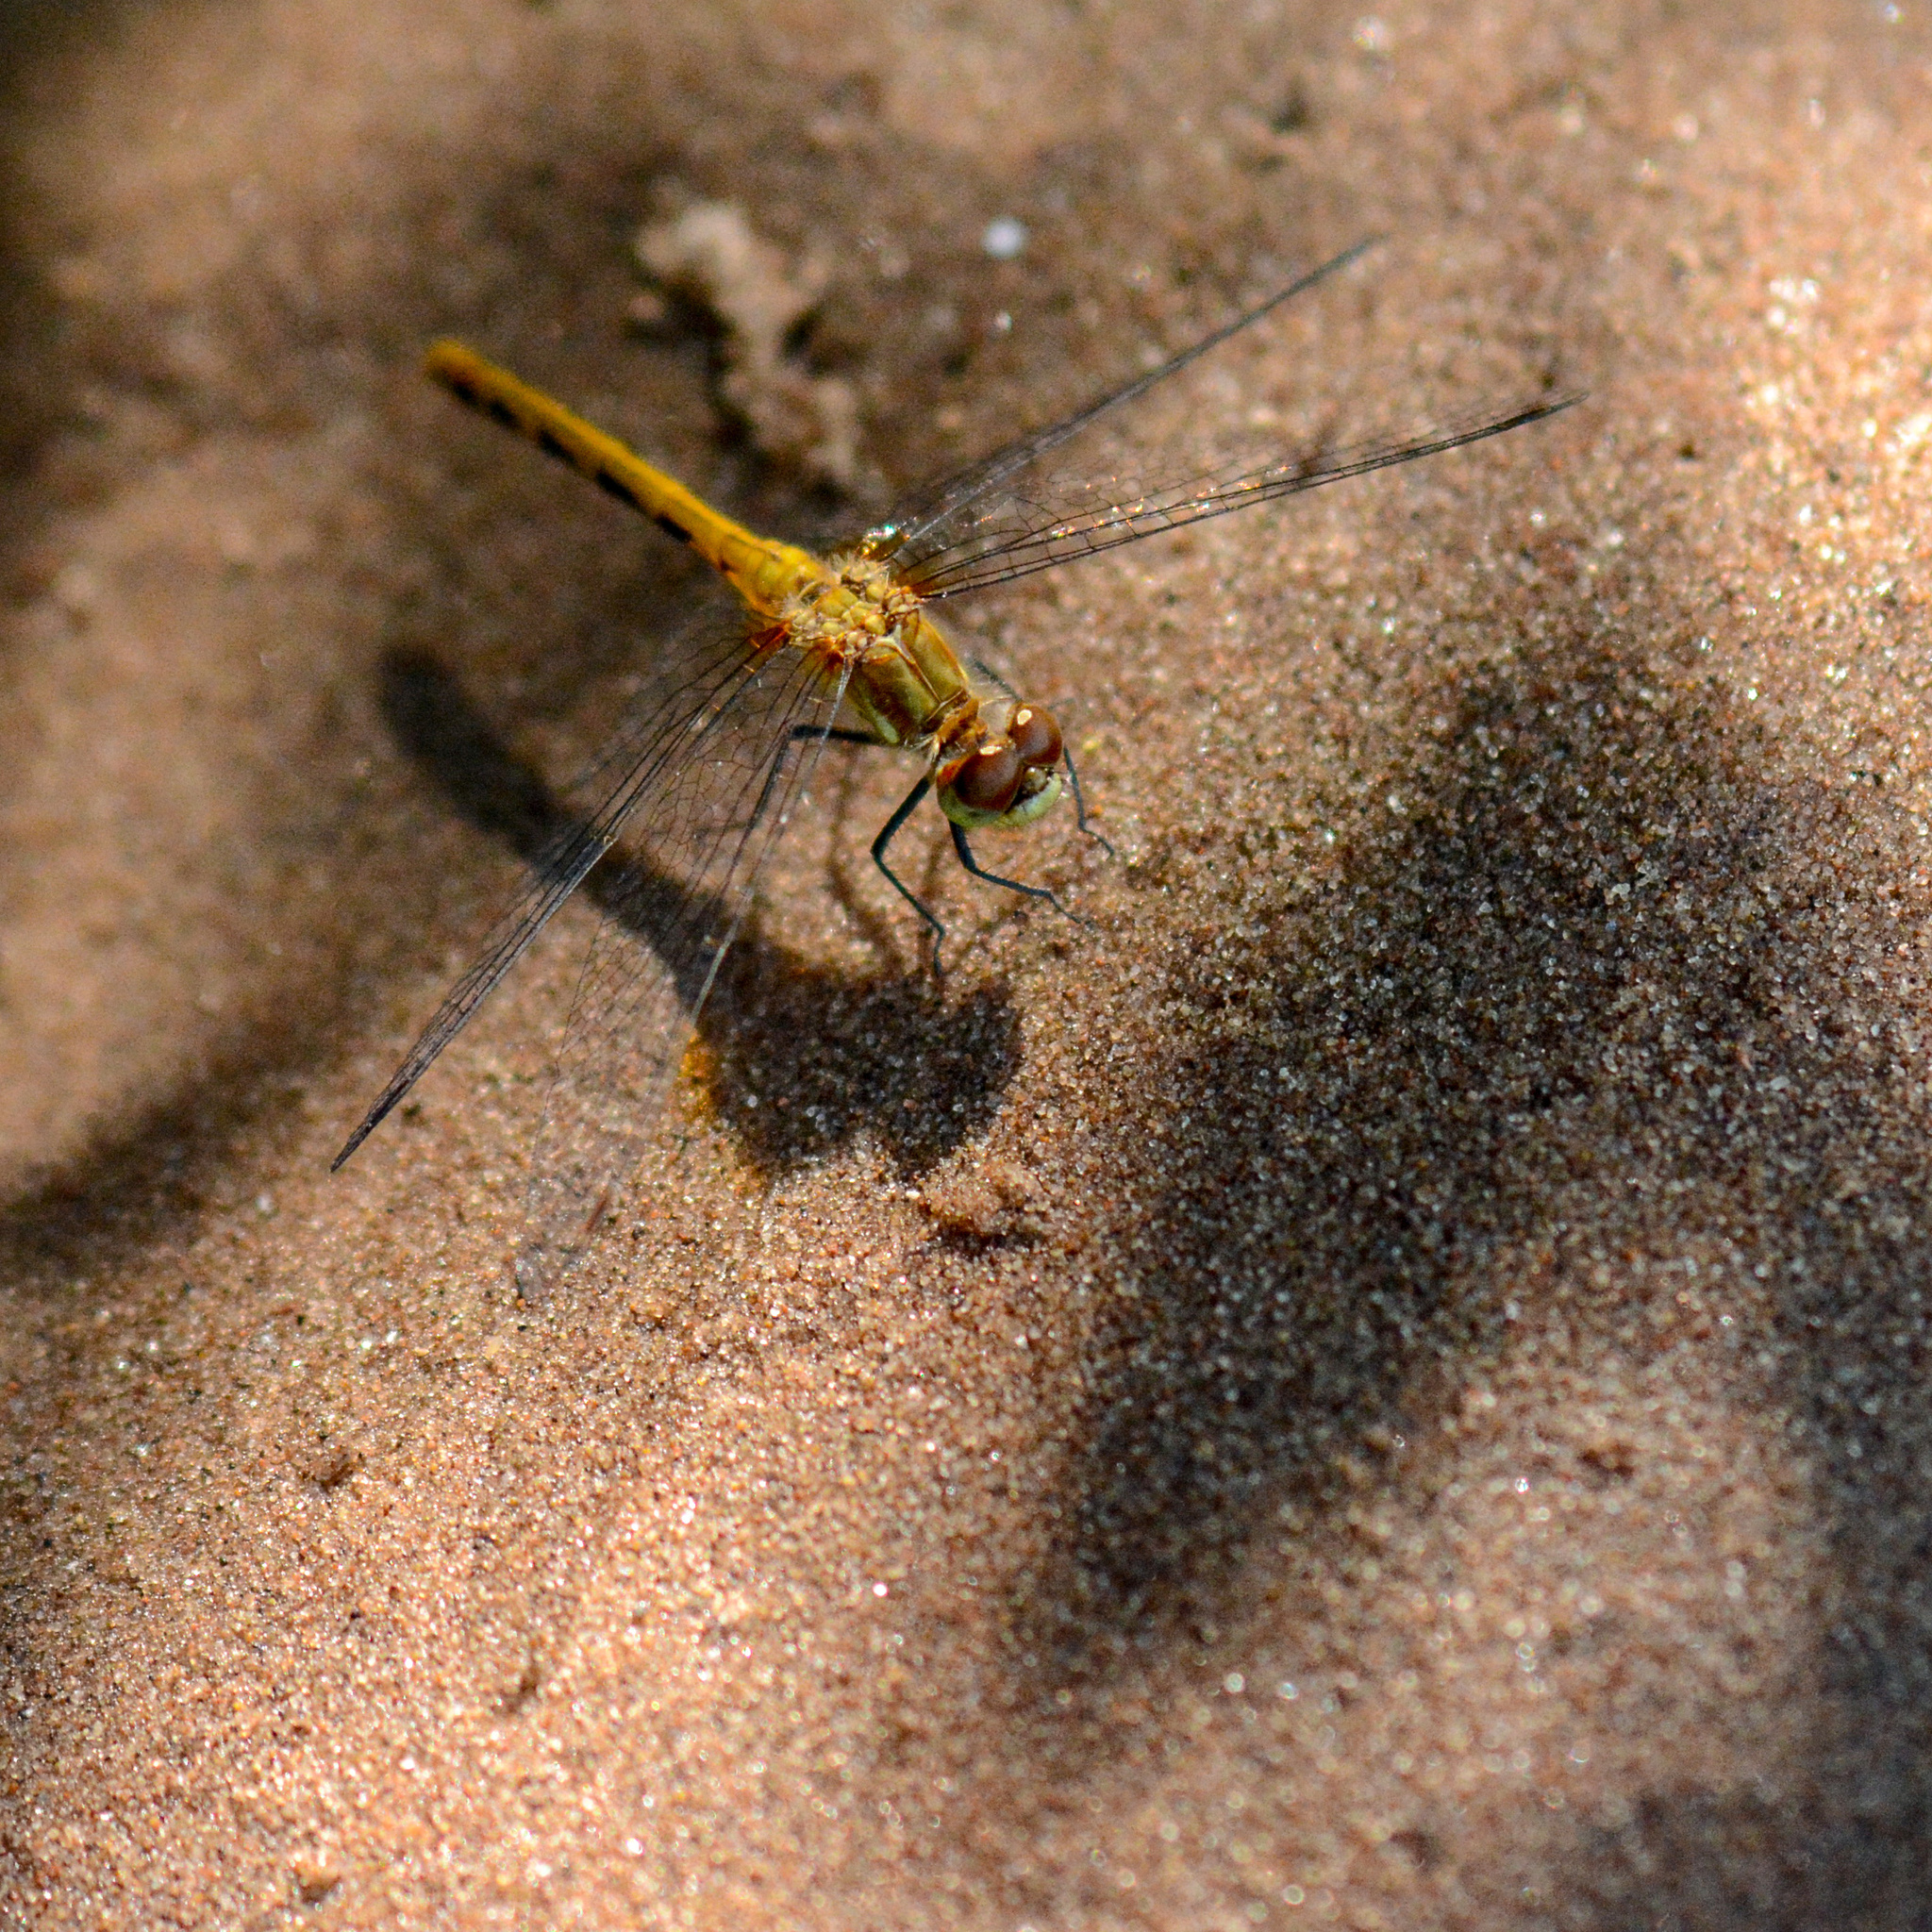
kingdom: Animalia
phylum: Arthropoda
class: Insecta
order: Odonata
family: Libellulidae
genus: Sympetrum
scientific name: Sympetrum obtrusum
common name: White-faced meadowhawk
